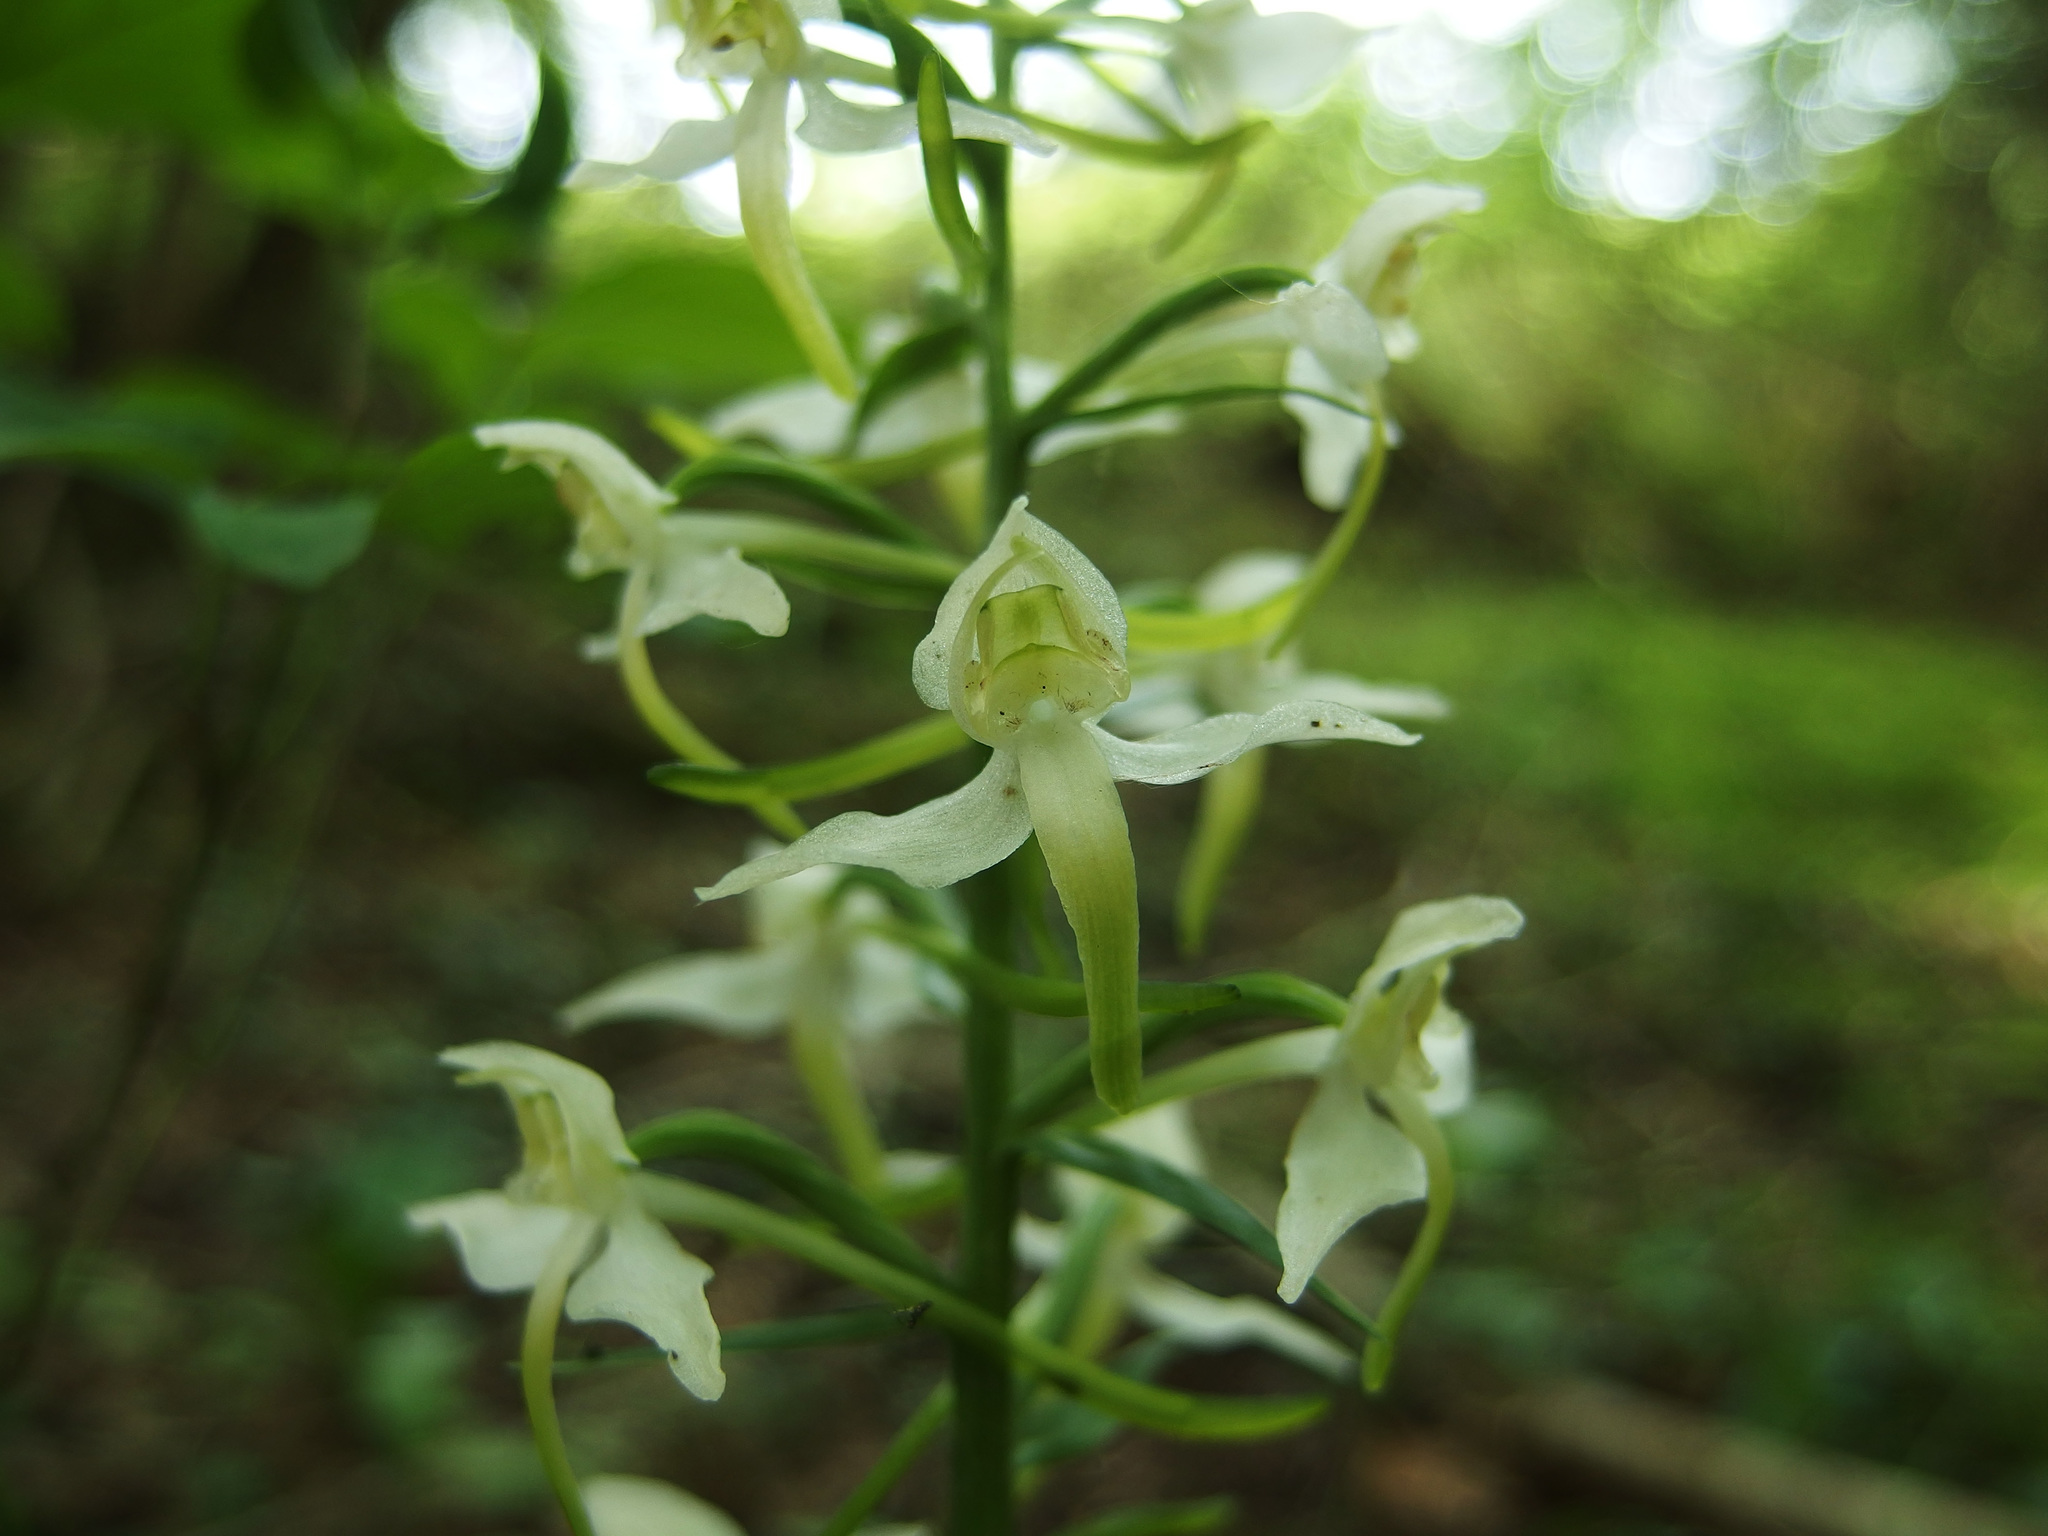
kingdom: Plantae
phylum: Tracheophyta
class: Liliopsida
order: Asparagales
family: Orchidaceae
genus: Platanthera
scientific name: Platanthera chlorantha
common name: Greater butterfly-orchid
